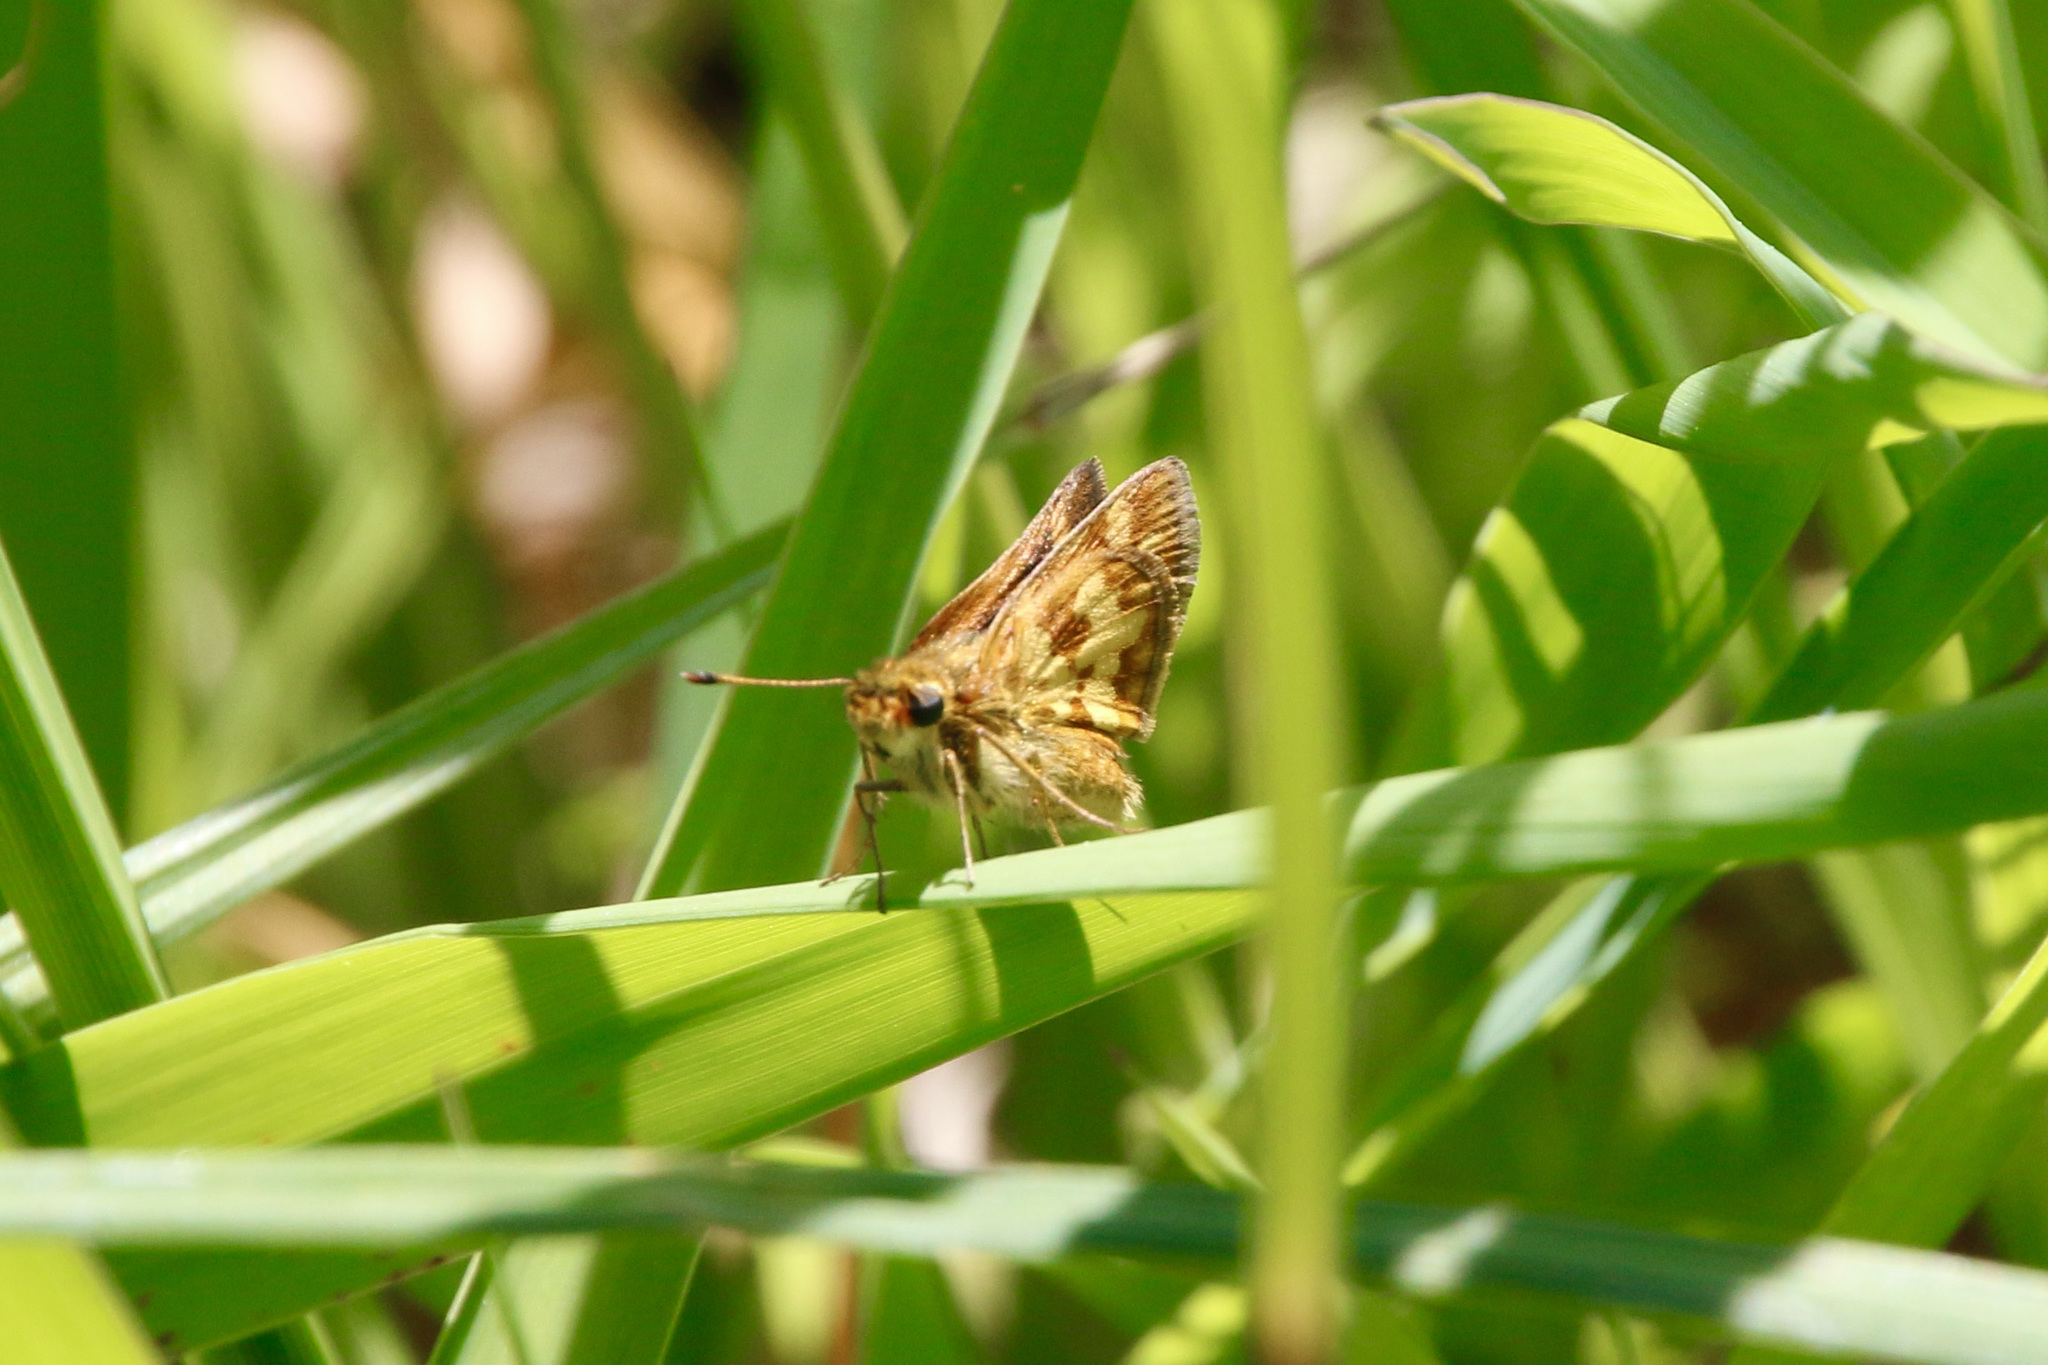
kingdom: Animalia
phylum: Arthropoda
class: Insecta
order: Lepidoptera
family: Hesperiidae
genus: Polites
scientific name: Polites coras
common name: Peck's skipper
